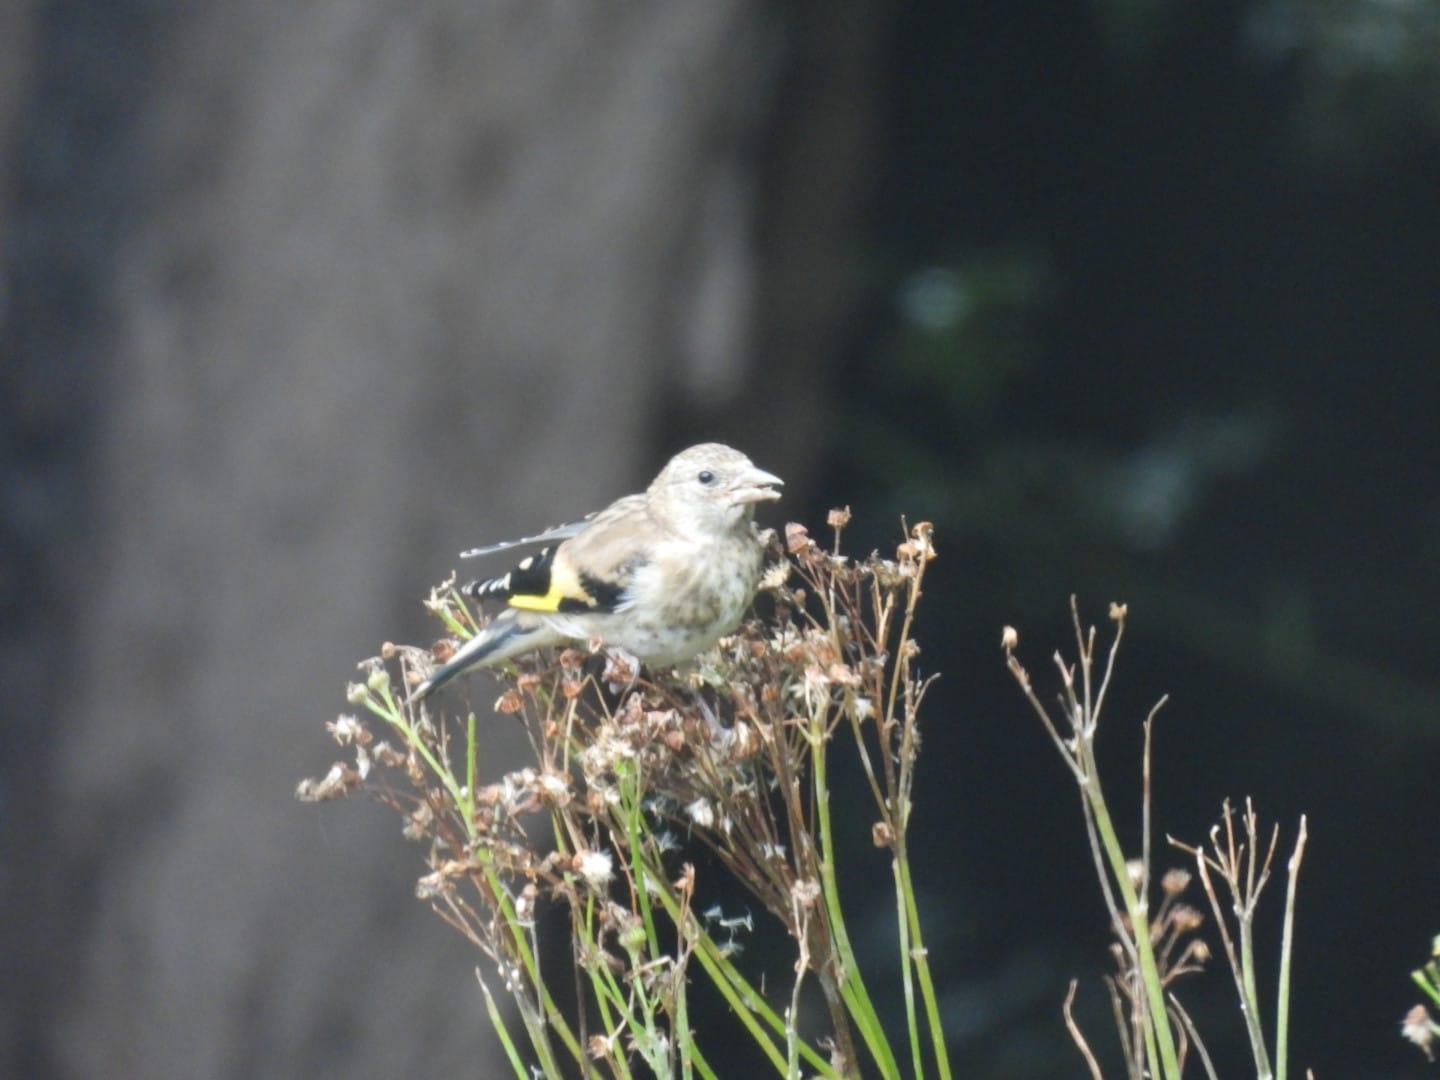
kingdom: Animalia
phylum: Chordata
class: Aves
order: Passeriformes
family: Fringillidae
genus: Carduelis
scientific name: Carduelis carduelis
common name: European goldfinch
